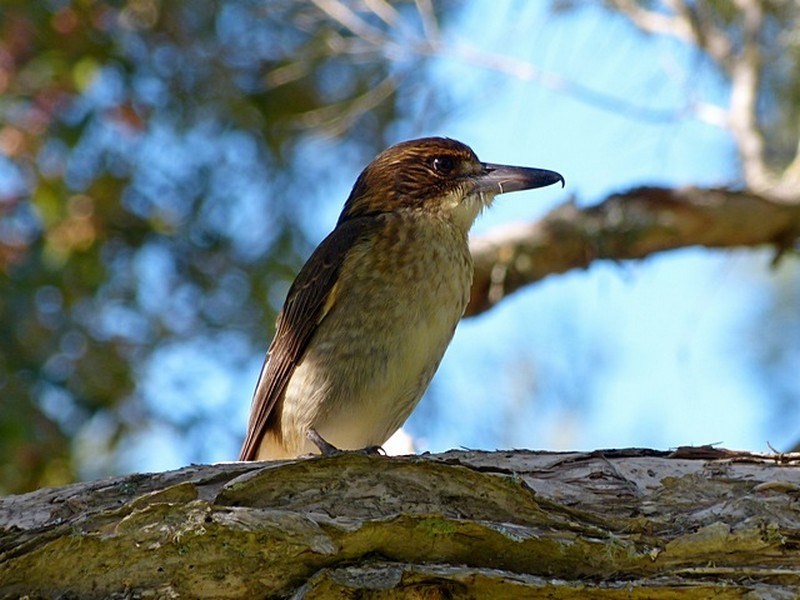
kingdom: Animalia
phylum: Chordata
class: Aves
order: Passeriformes
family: Cracticidae
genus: Cracticus
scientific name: Cracticus torquatus
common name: Grey butcherbird
